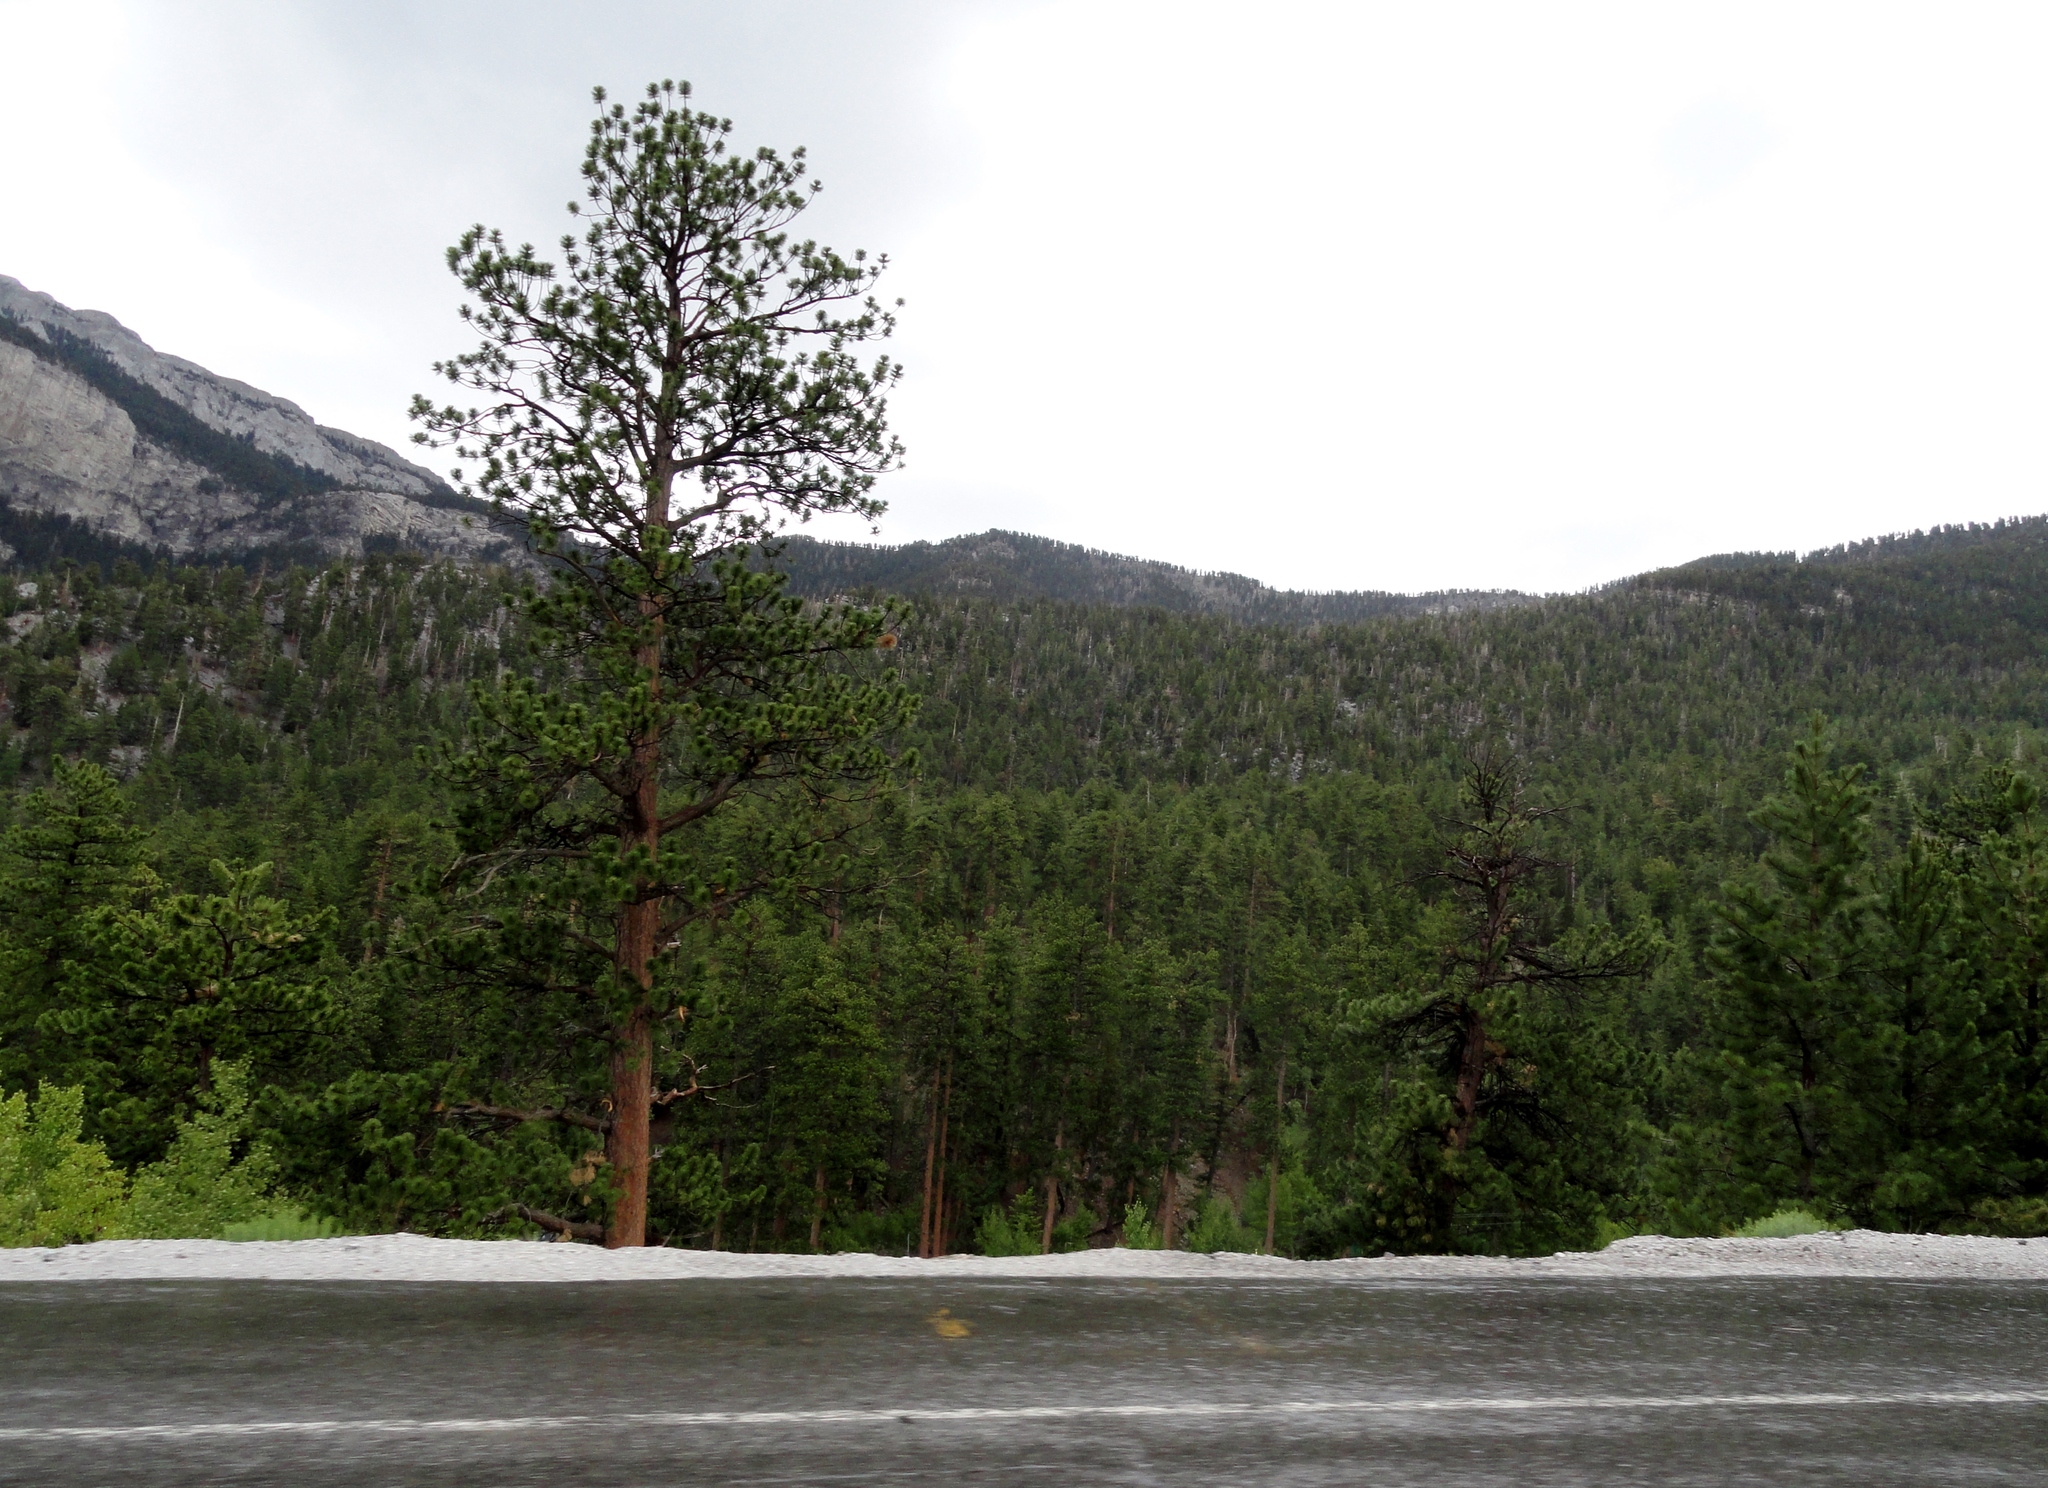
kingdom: Plantae
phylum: Tracheophyta
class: Pinopsida
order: Pinales
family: Pinaceae
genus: Pinus
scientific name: Pinus ponderosa
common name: Western yellow-pine
